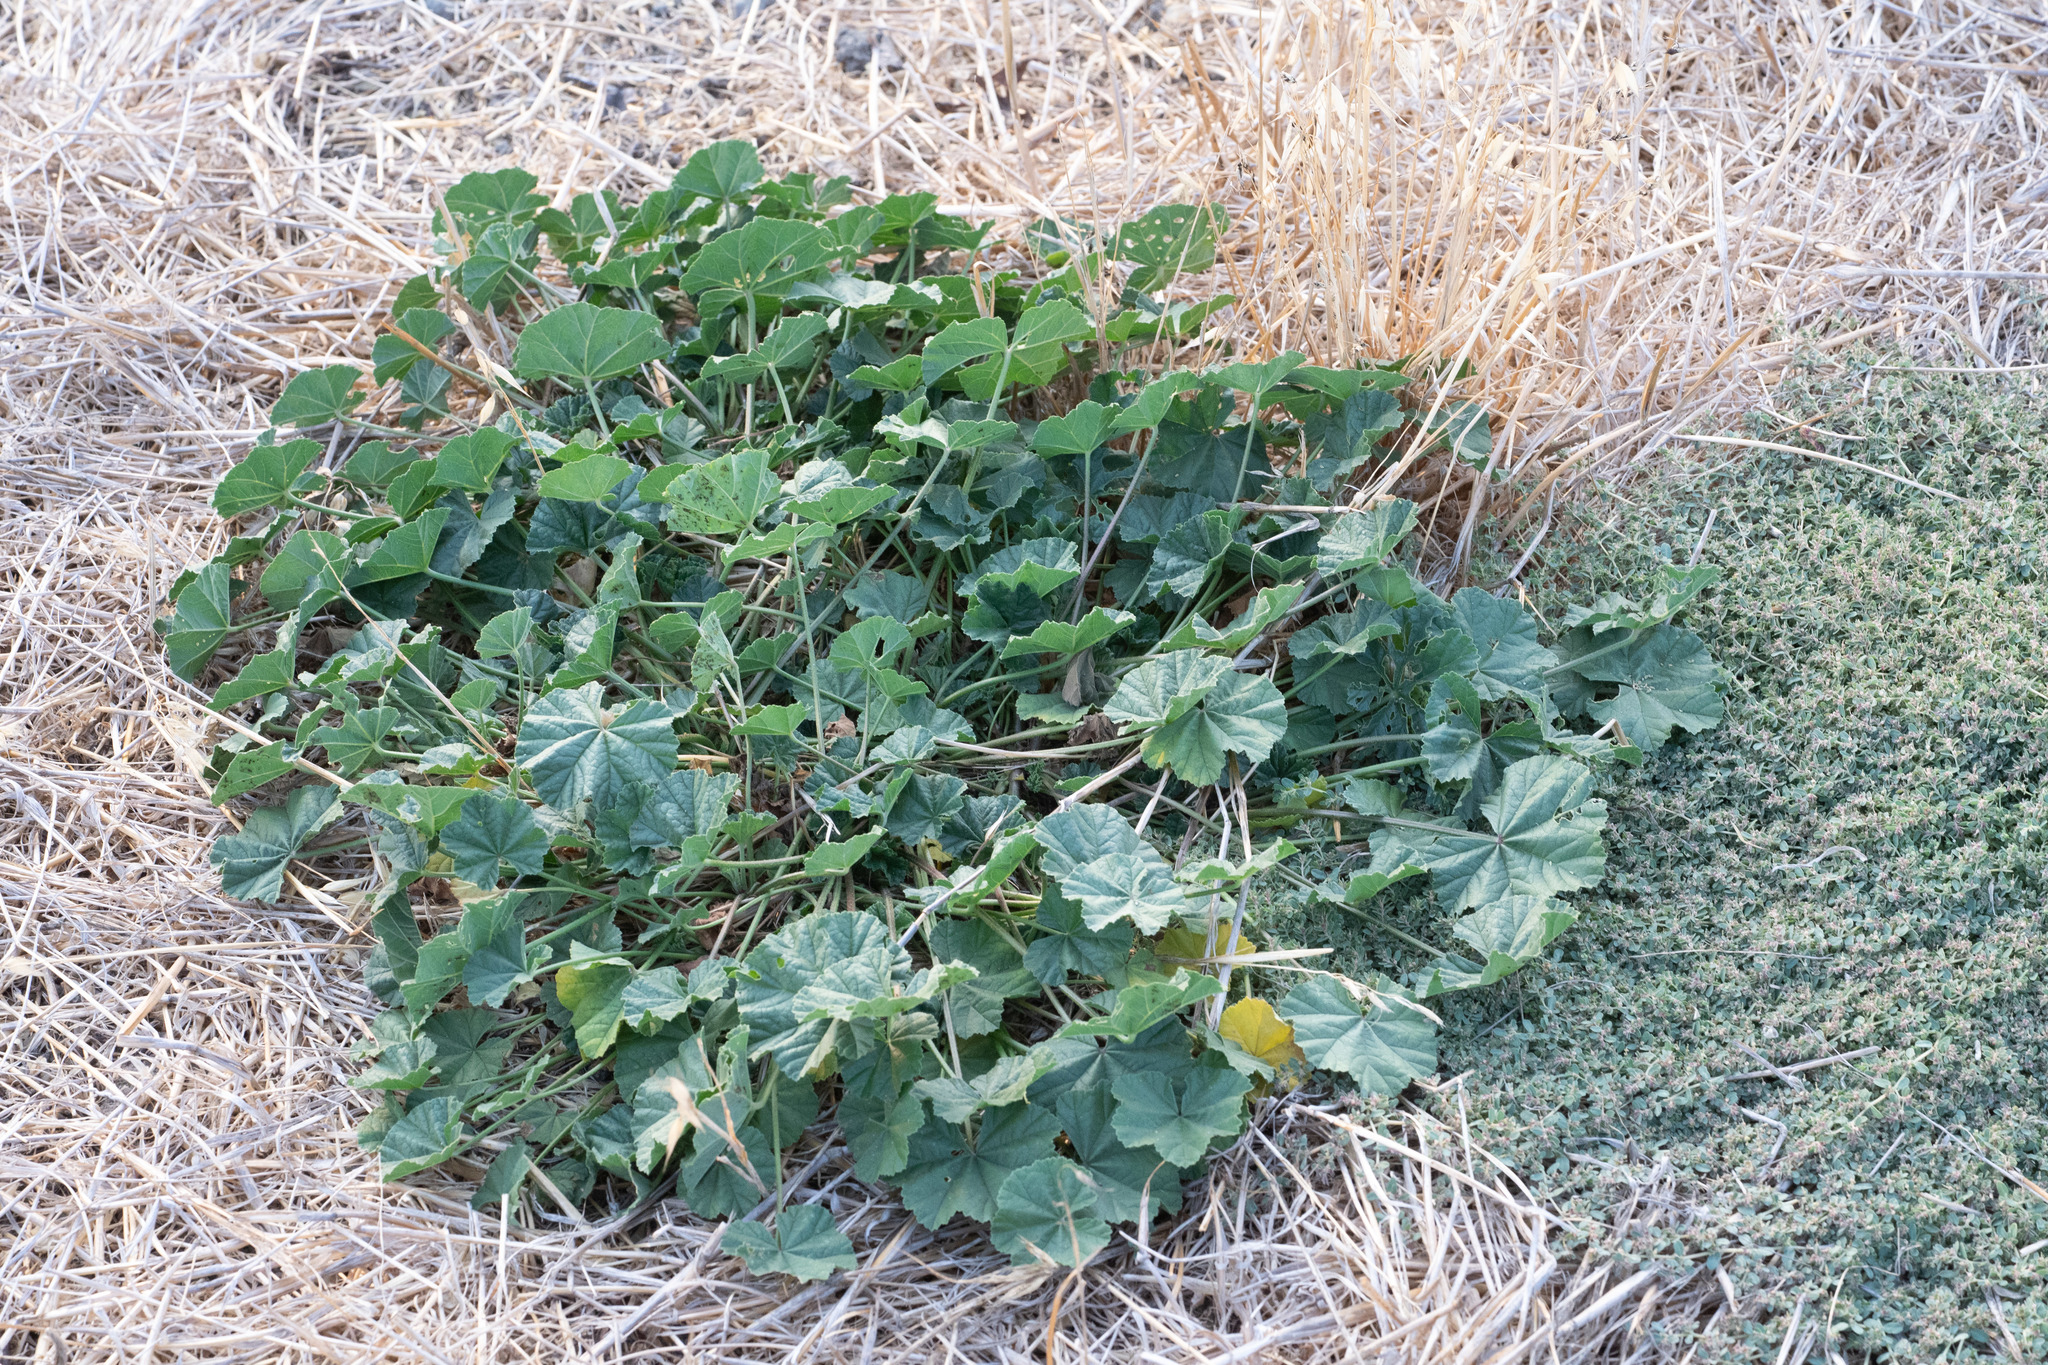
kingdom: Plantae
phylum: Tracheophyta
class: Magnoliopsida
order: Malvales
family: Malvaceae
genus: Malva
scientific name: Malva
